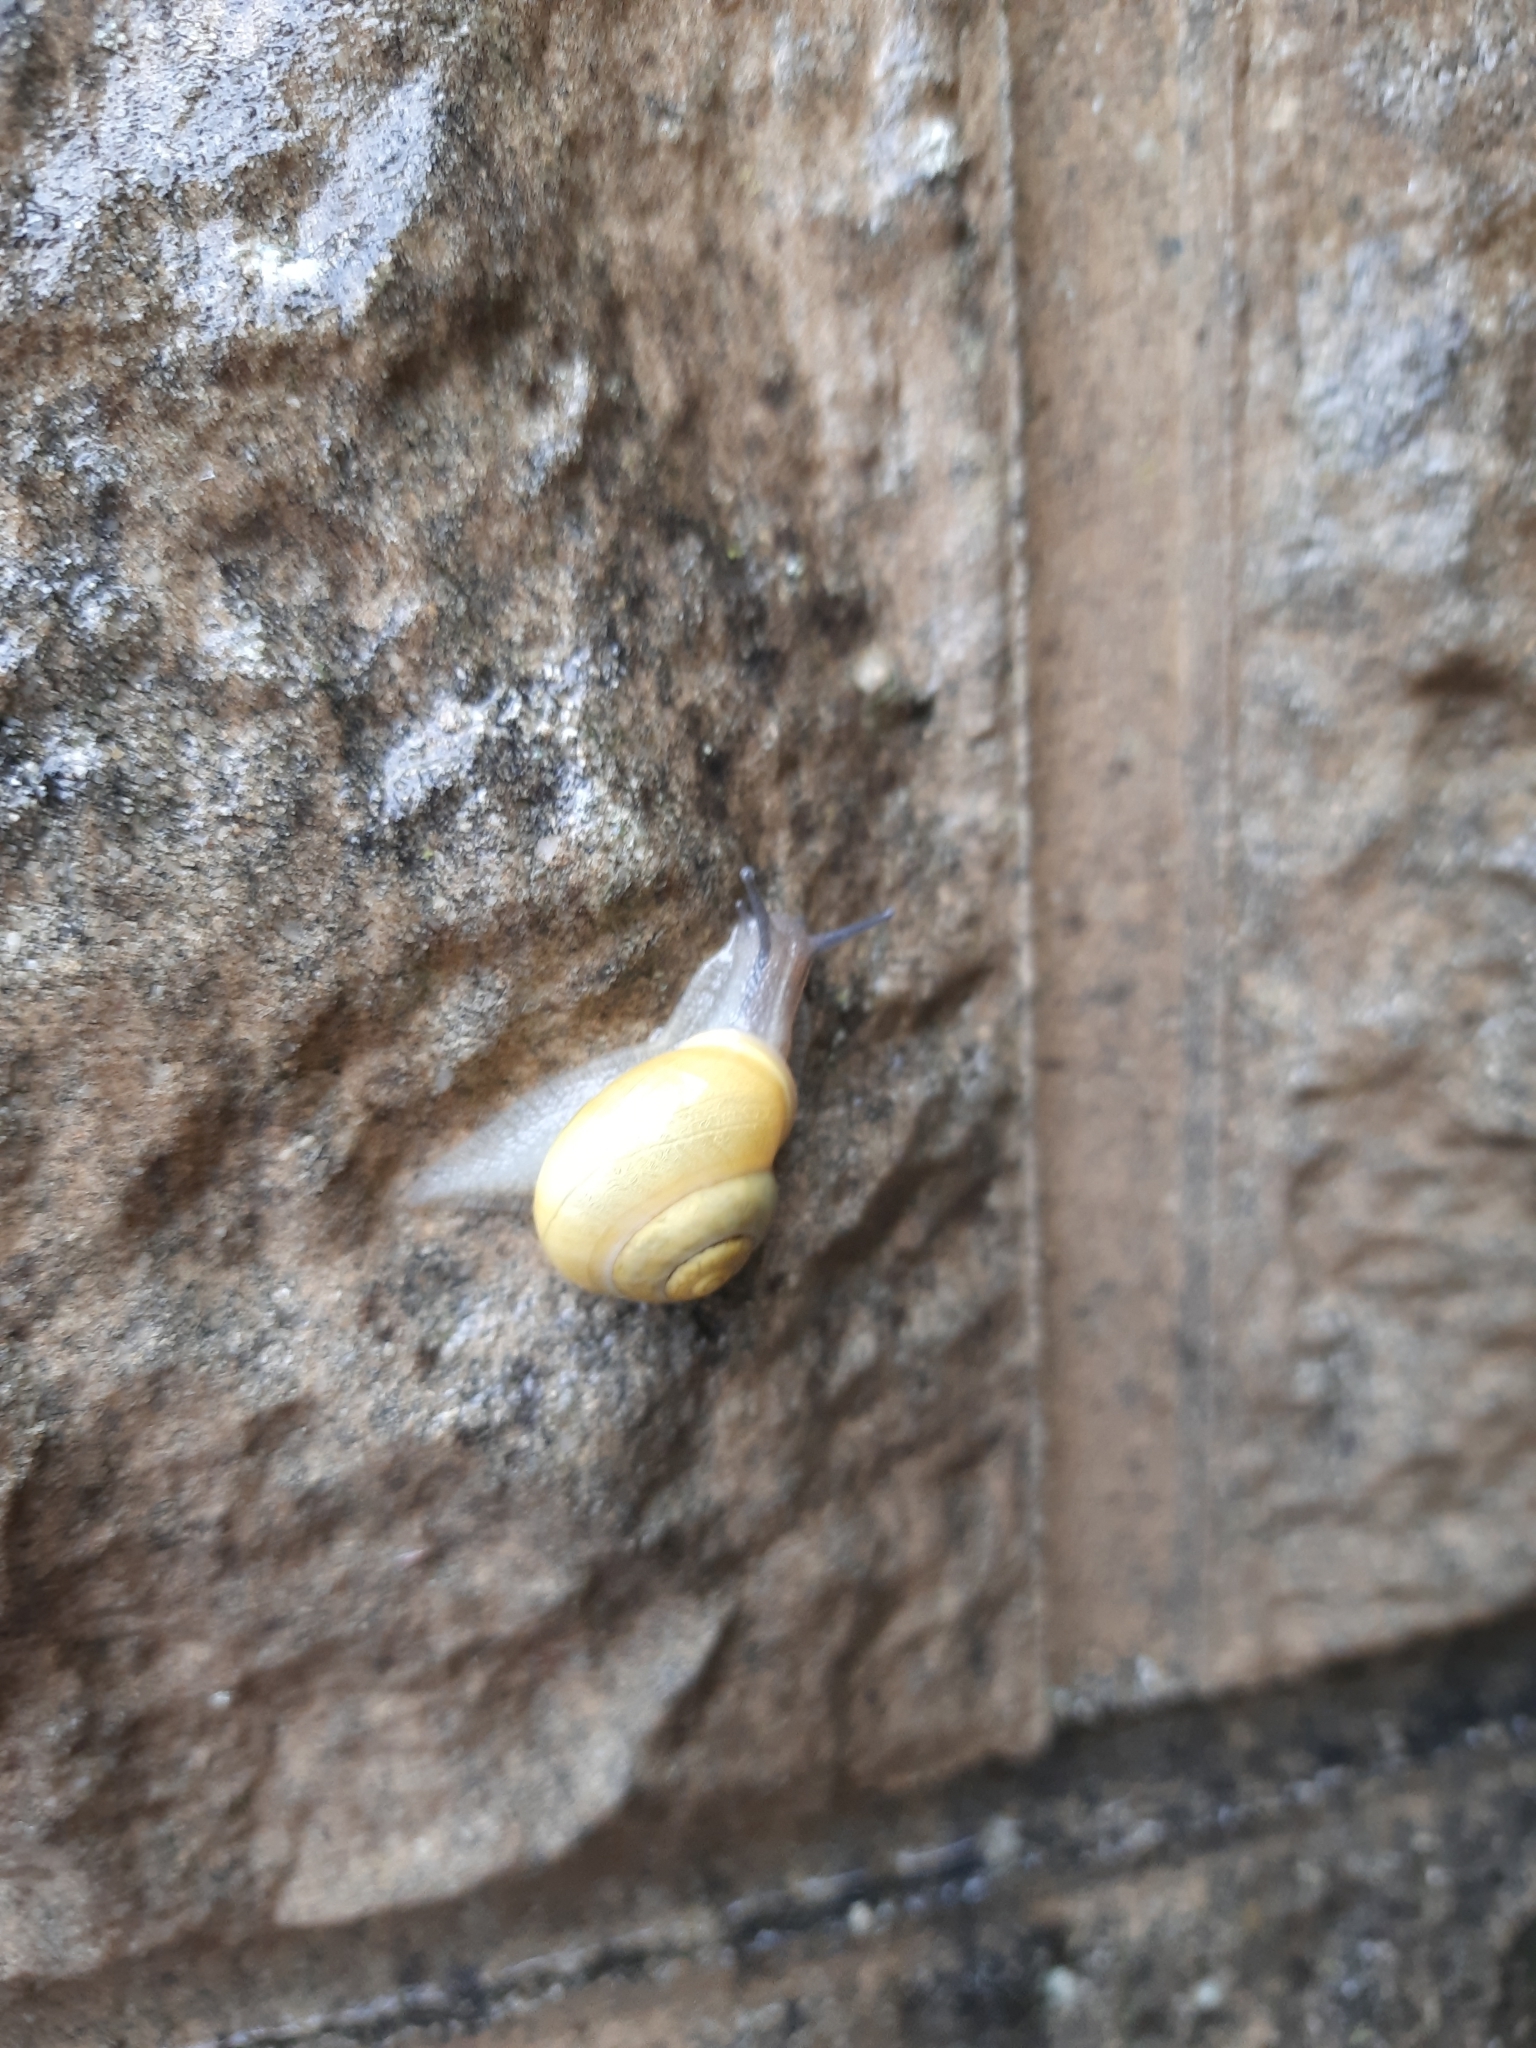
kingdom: Animalia
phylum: Mollusca
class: Gastropoda
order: Stylommatophora
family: Helicidae
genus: Cepaea
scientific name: Cepaea hortensis
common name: White-lip gardensnail
